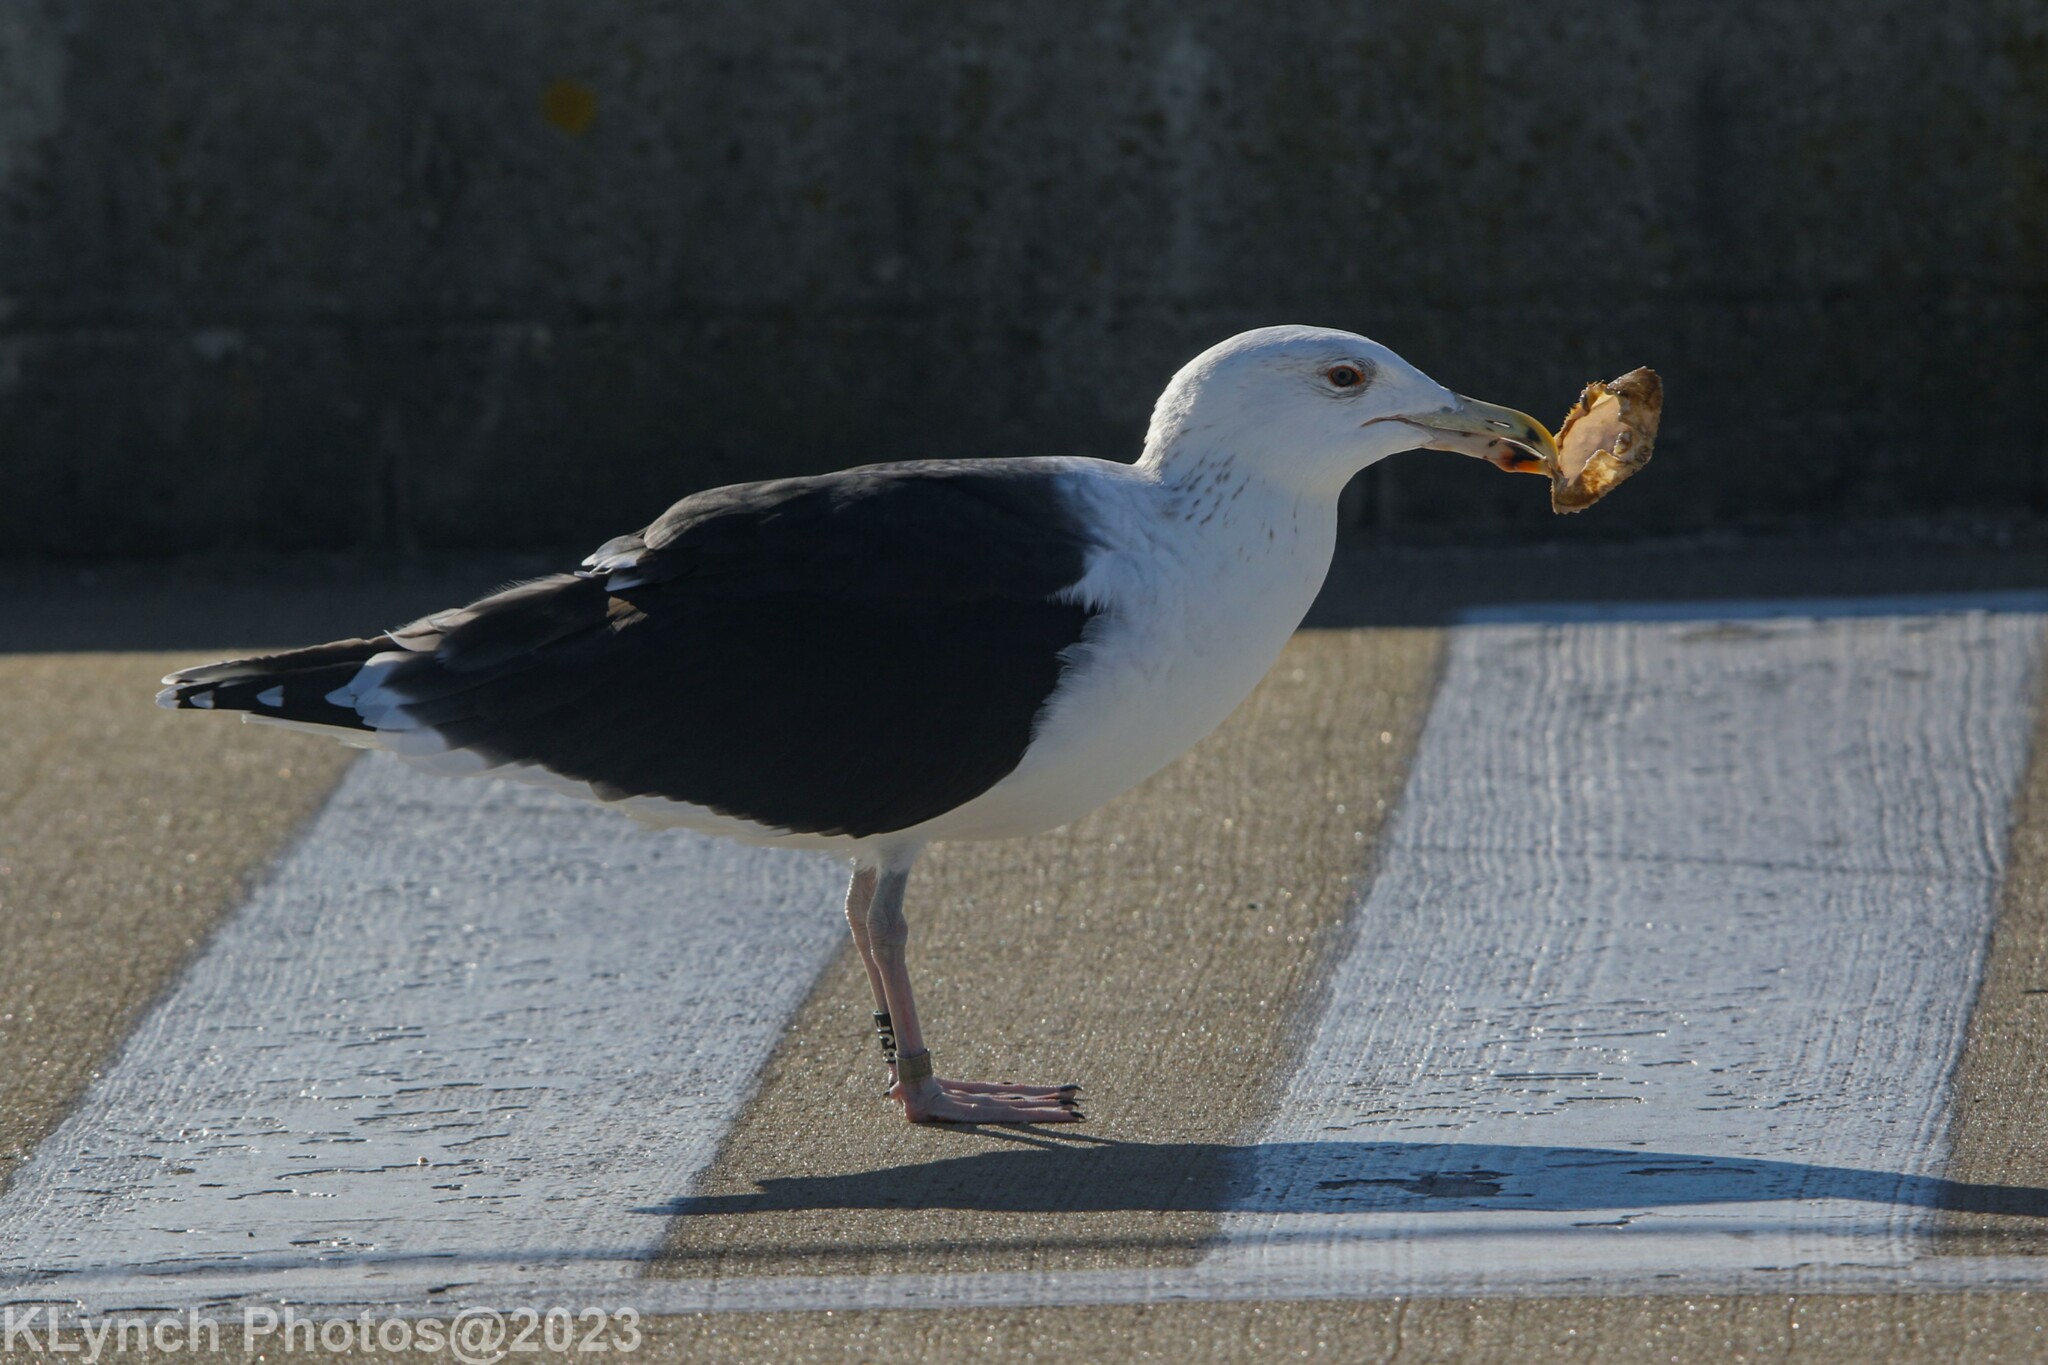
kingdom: Animalia
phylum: Chordata
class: Aves
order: Charadriiformes
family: Laridae
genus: Larus
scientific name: Larus marinus
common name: Great black-backed gull
